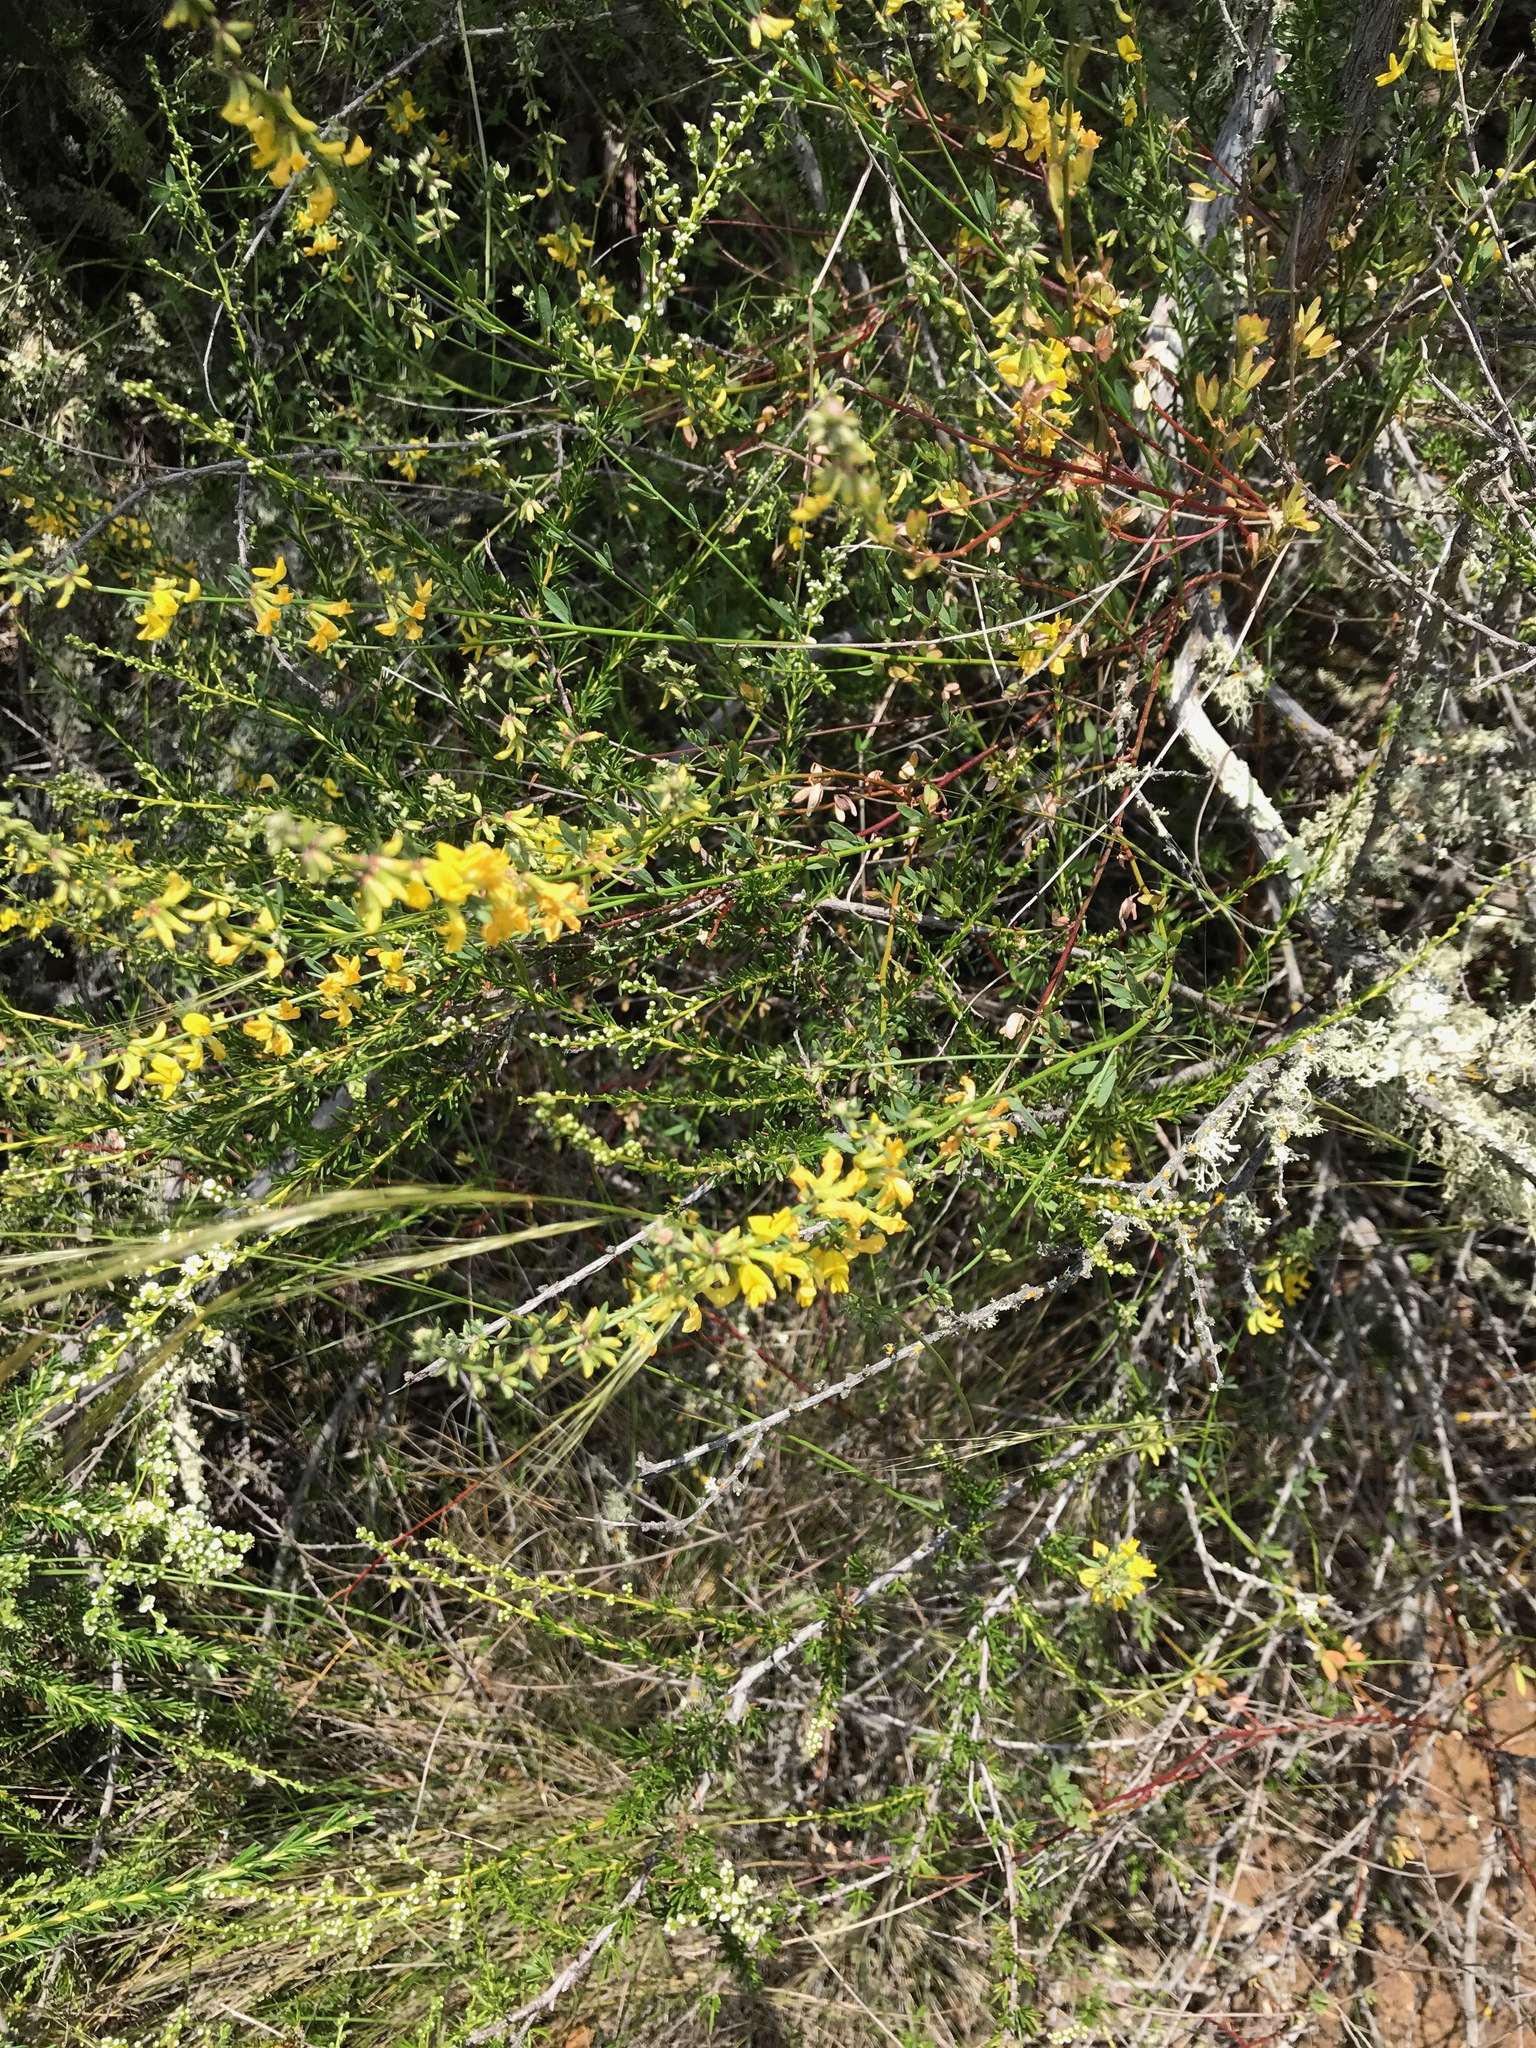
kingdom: Plantae
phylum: Tracheophyta
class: Magnoliopsida
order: Fabales
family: Fabaceae
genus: Acmispon
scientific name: Acmispon glaber
